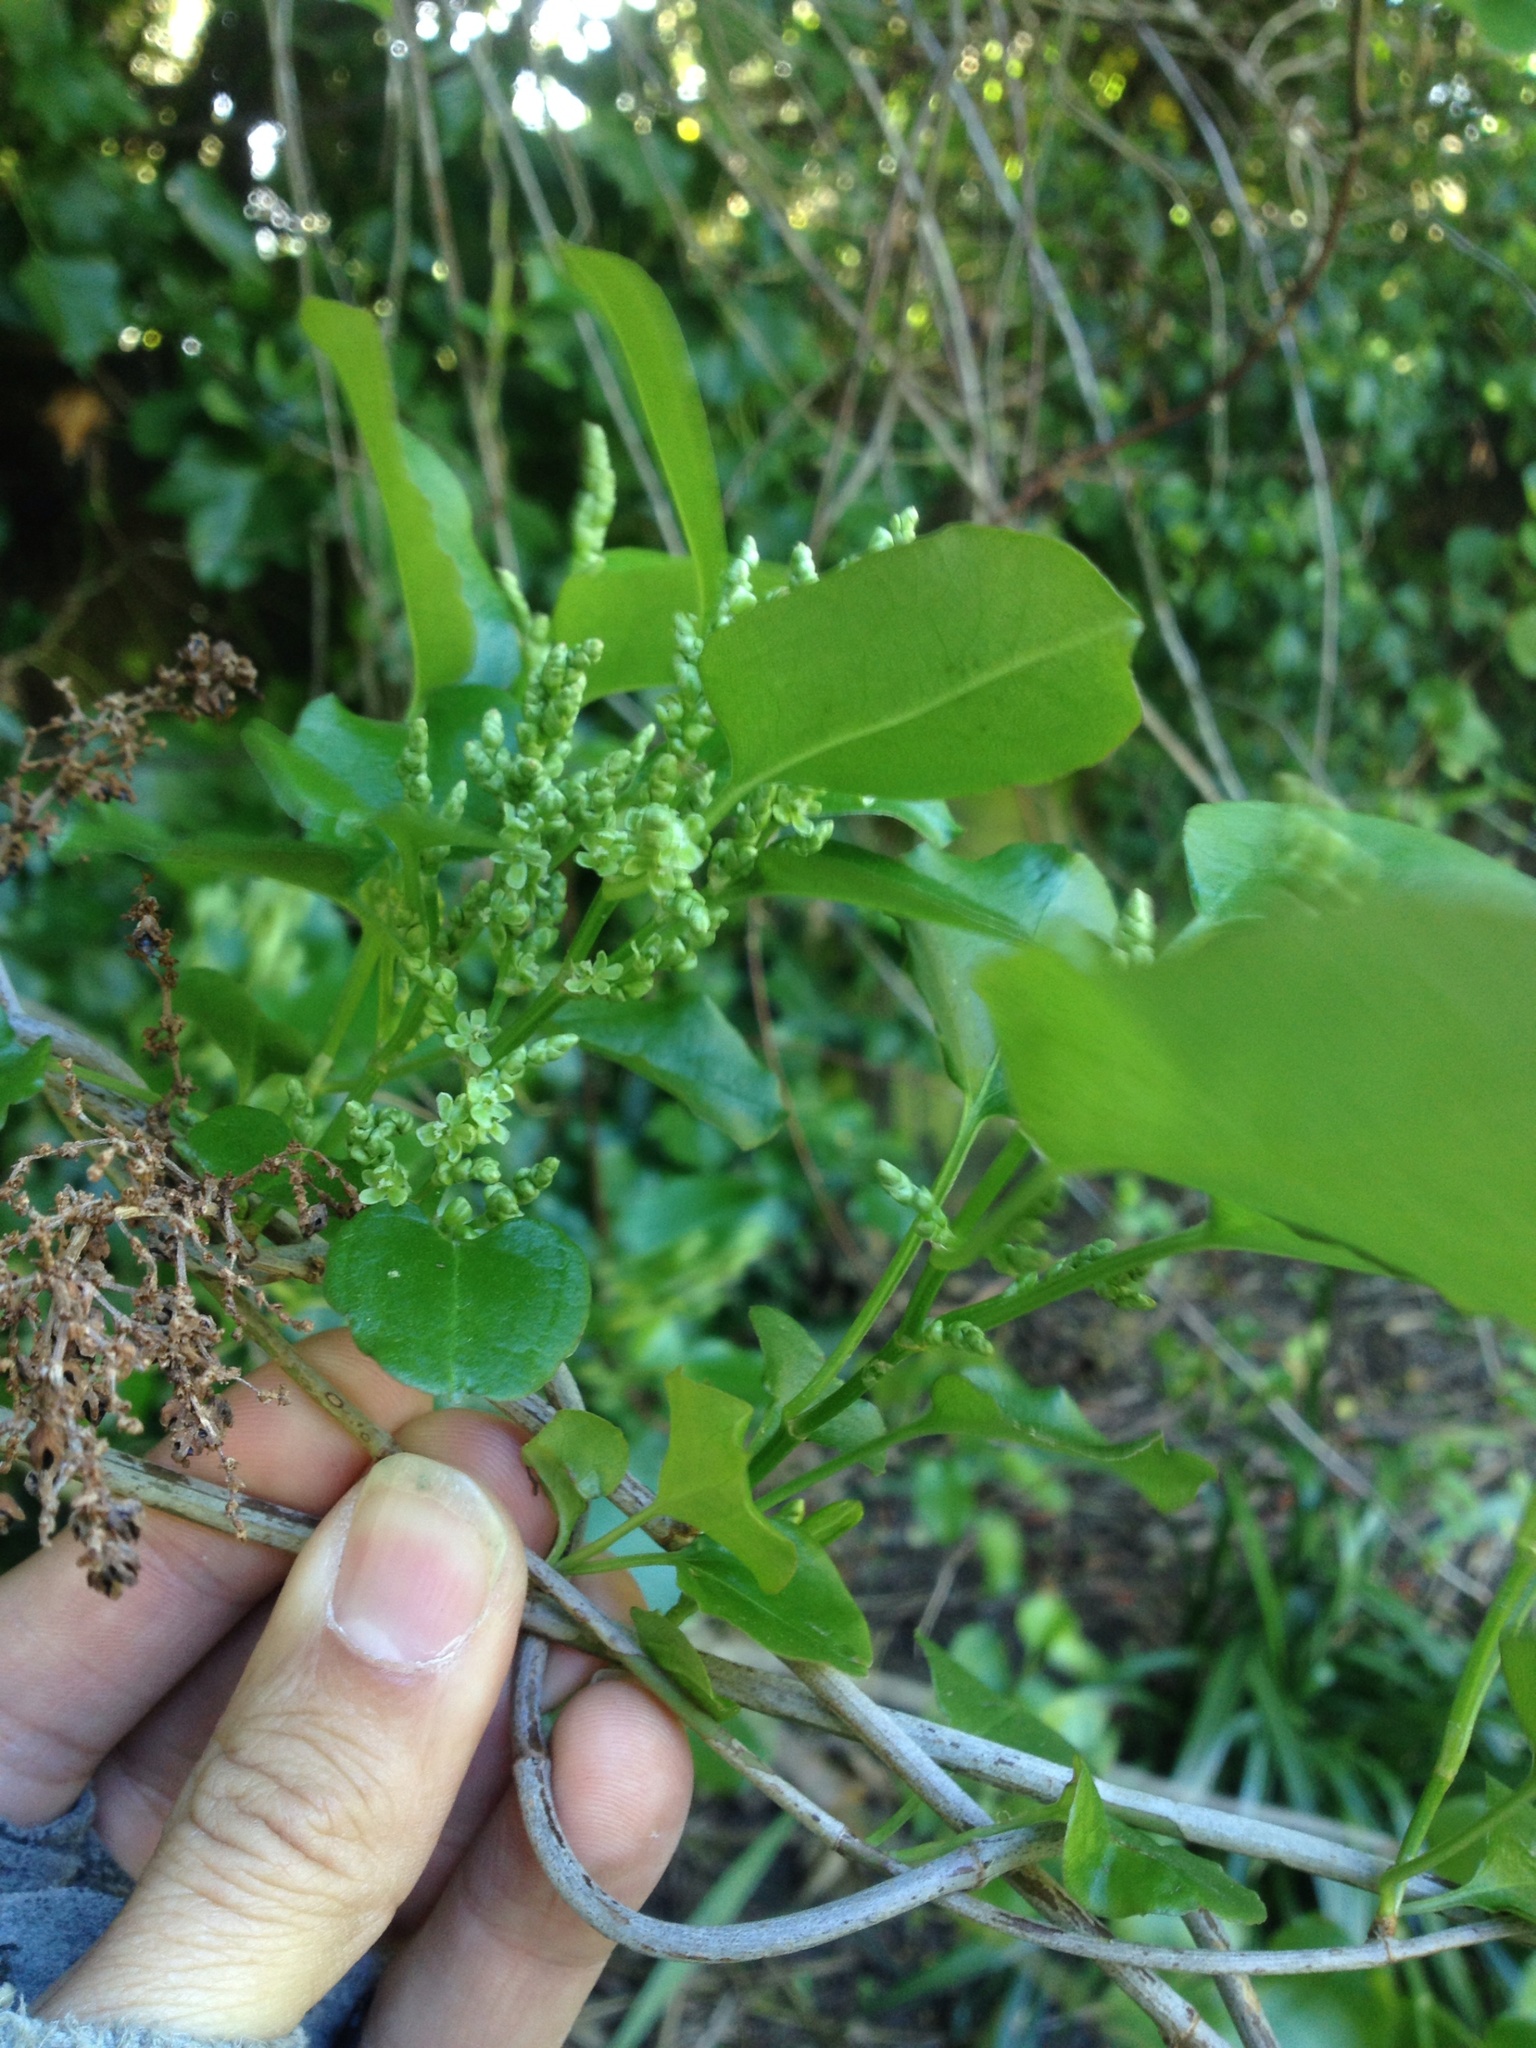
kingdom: Plantae
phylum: Tracheophyta
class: Magnoliopsida
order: Caryophyllales
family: Polygonaceae
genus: Muehlenbeckia
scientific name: Muehlenbeckia australis
